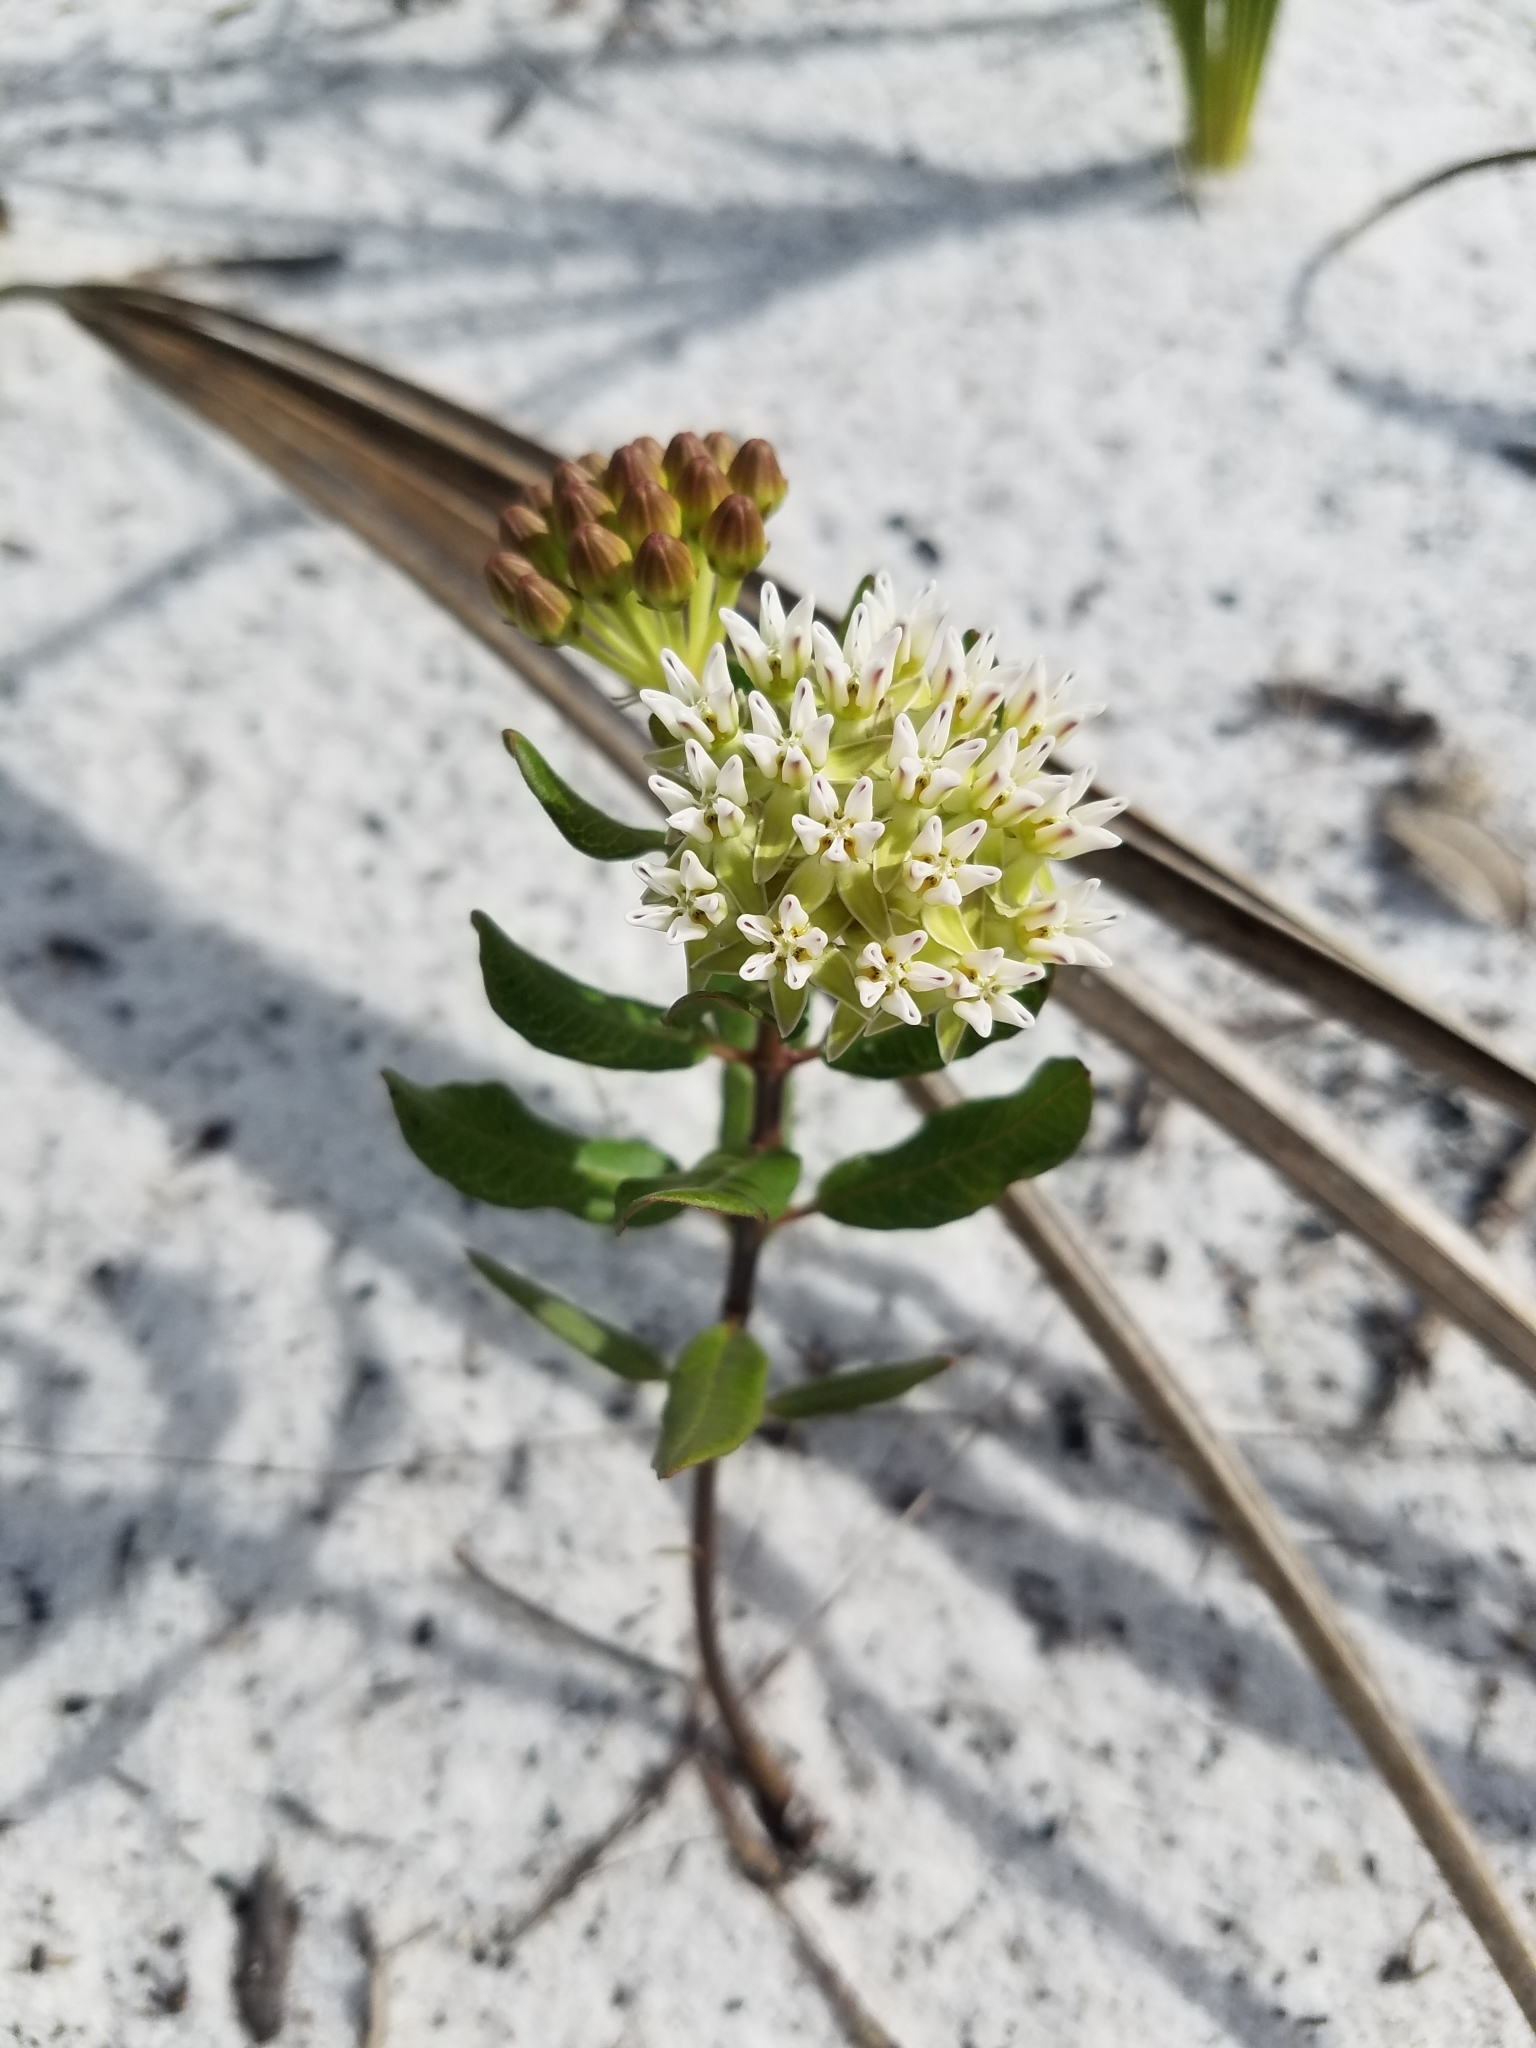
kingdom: Plantae
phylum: Tracheophyta
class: Magnoliopsida
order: Gentianales
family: Apocynaceae
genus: Asclepias
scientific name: Asclepias curtissii
